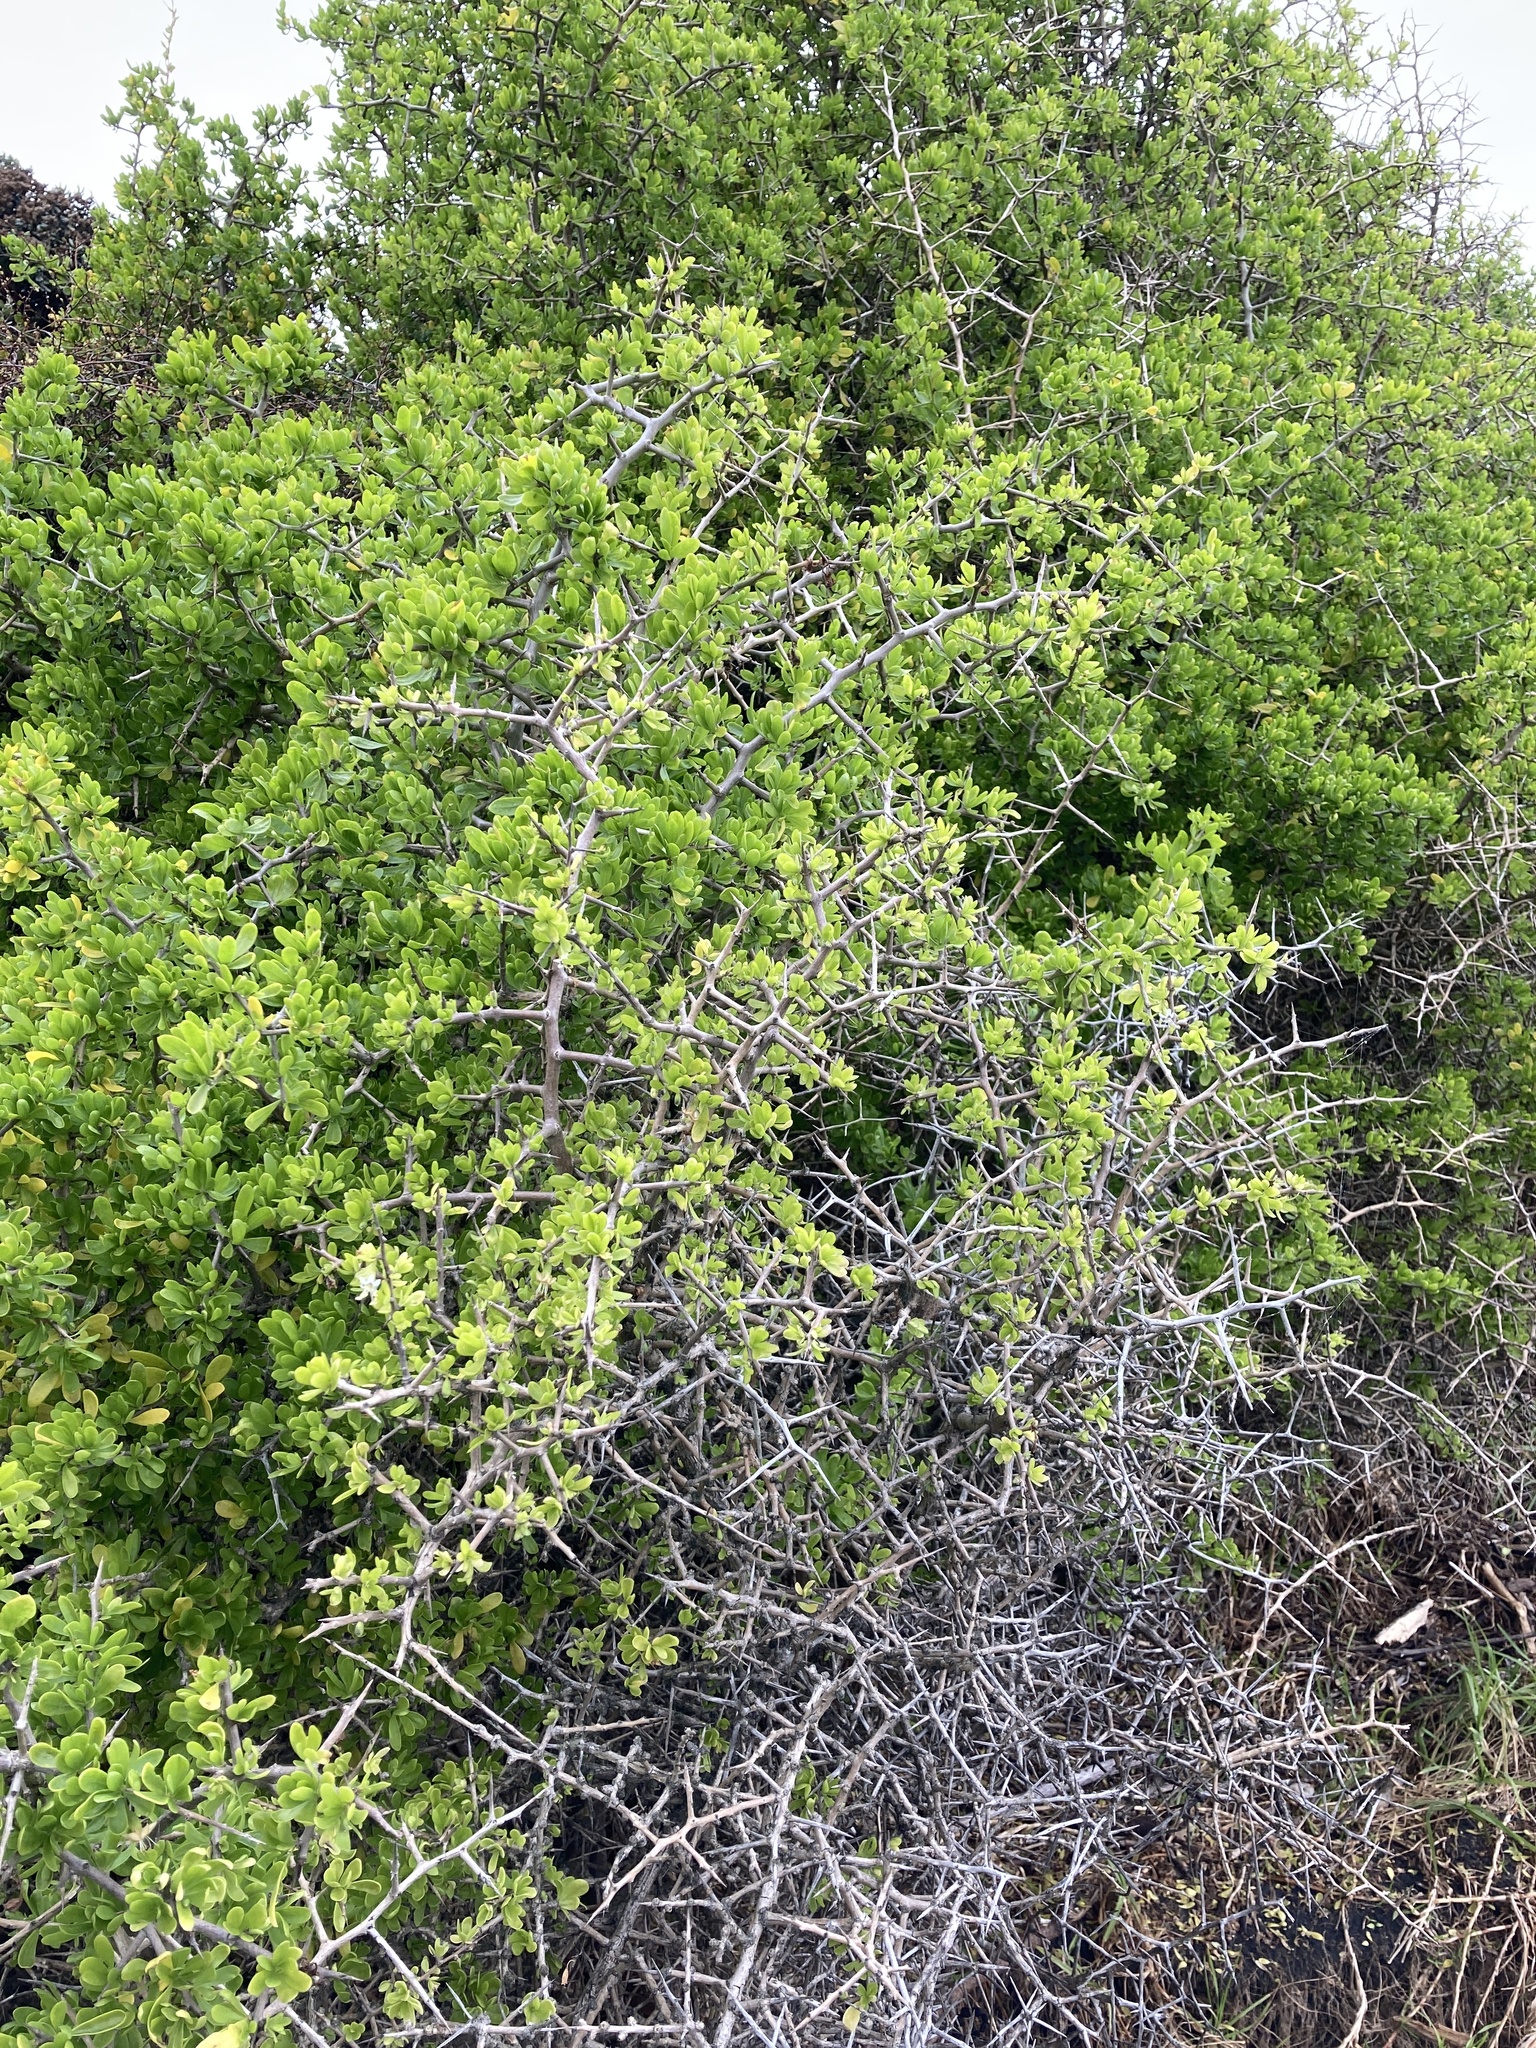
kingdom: Plantae
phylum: Tracheophyta
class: Magnoliopsida
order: Solanales
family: Solanaceae
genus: Lycium
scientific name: Lycium ferocissimum
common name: African boxthorn
